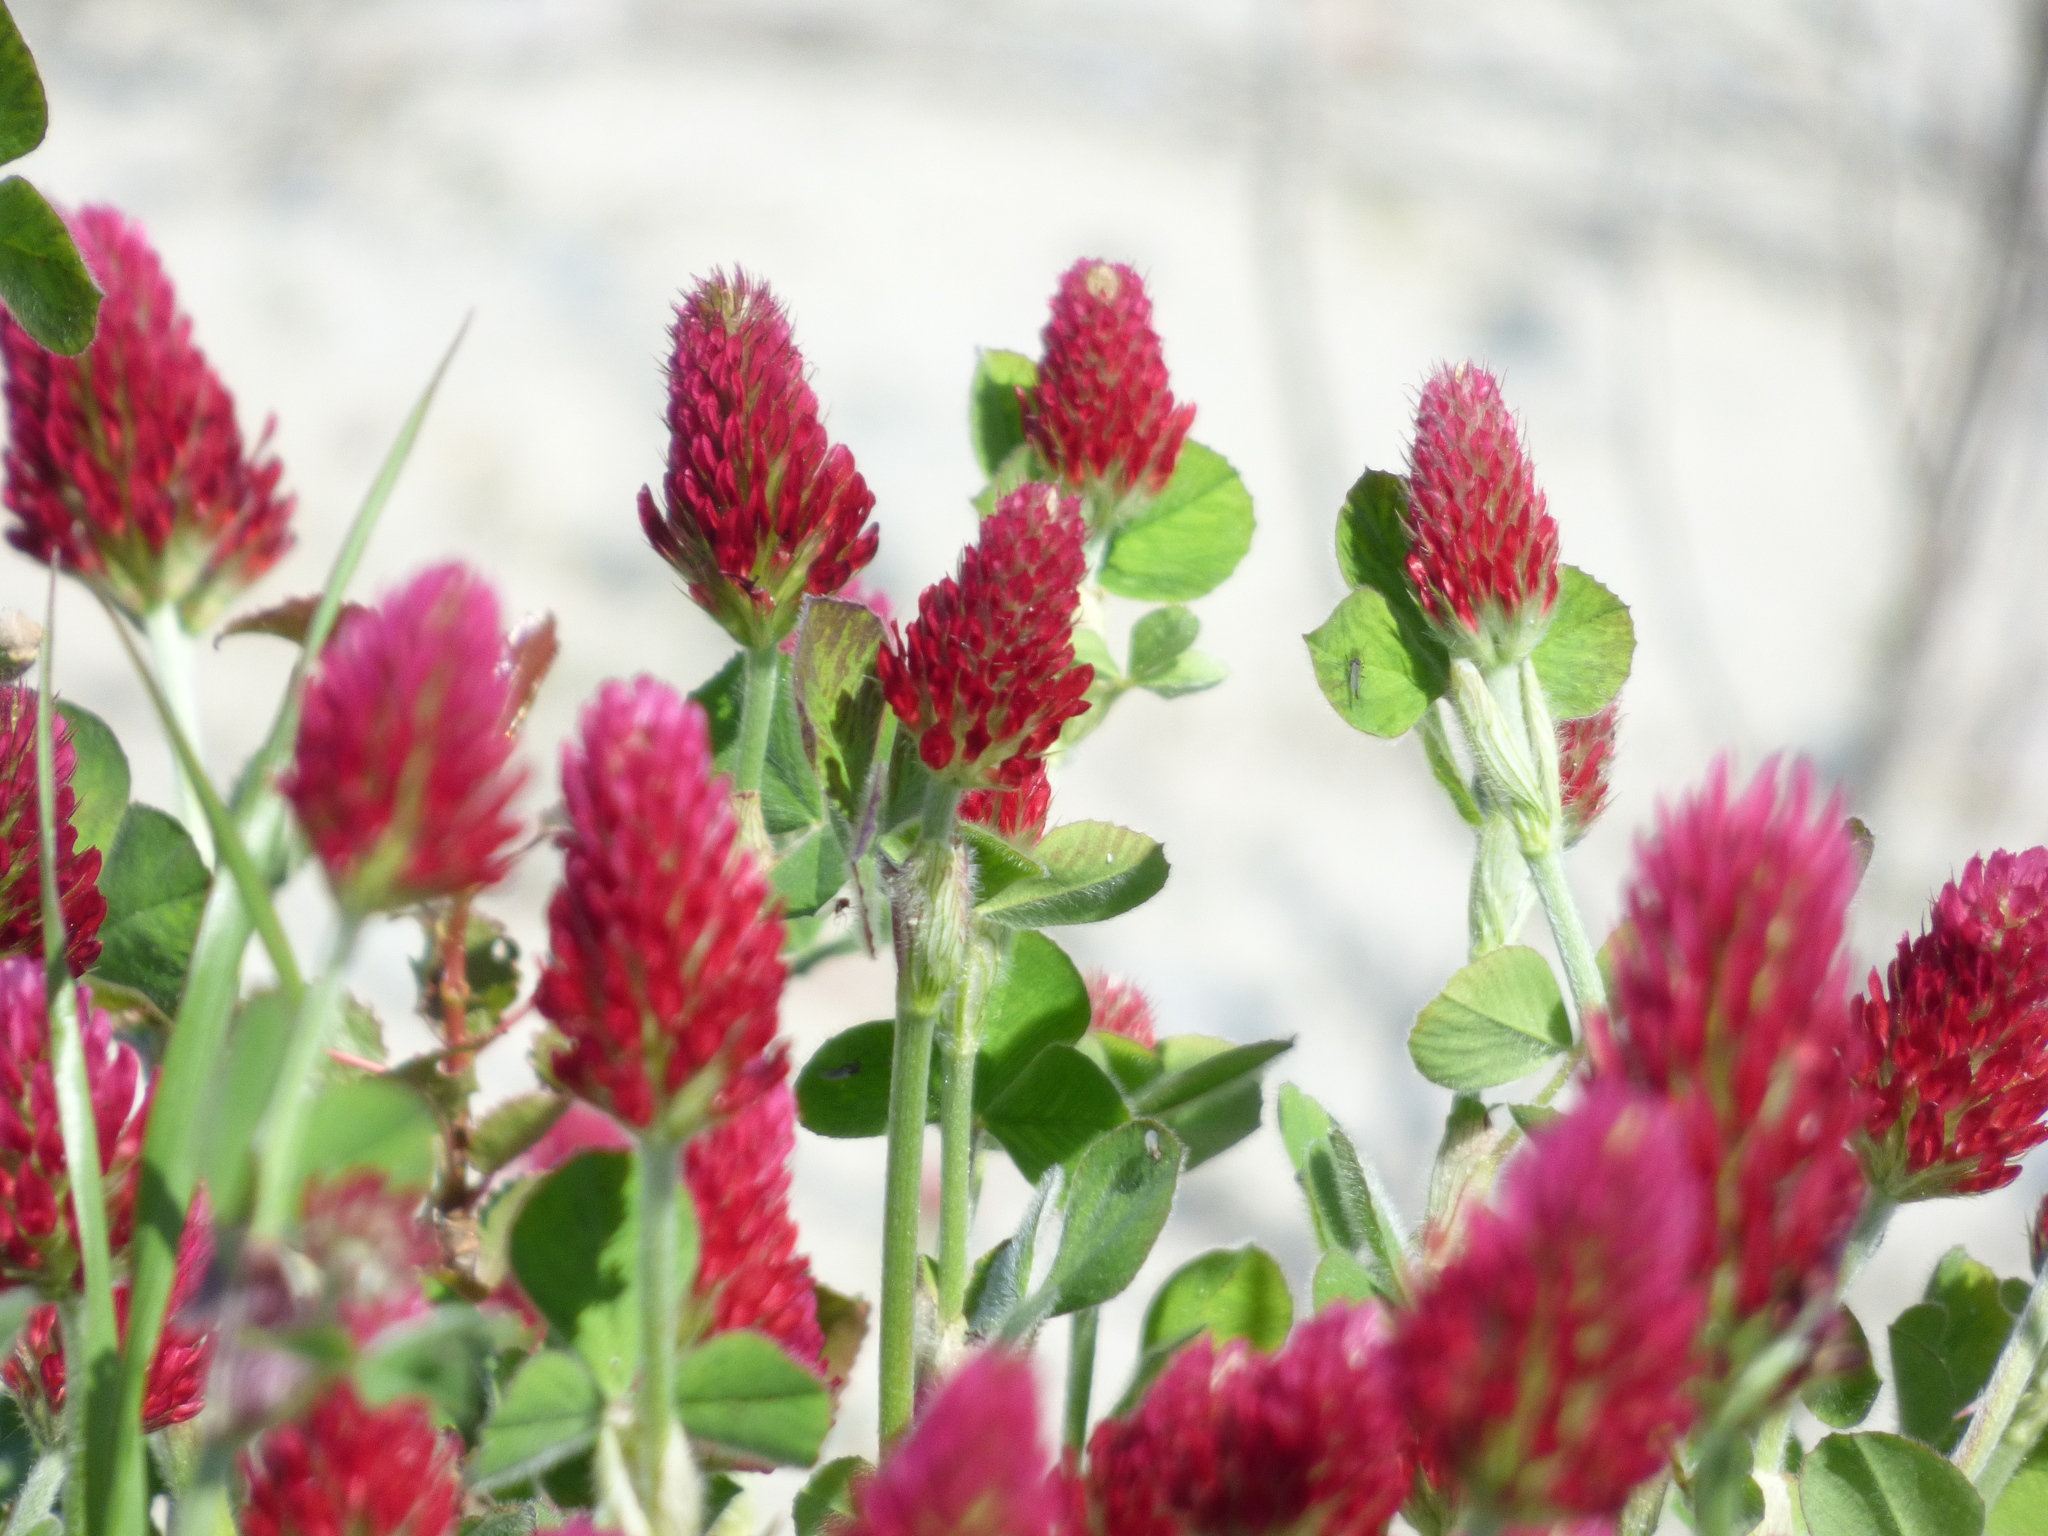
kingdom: Plantae
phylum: Tracheophyta
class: Magnoliopsida
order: Fabales
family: Fabaceae
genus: Trifolium
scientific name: Trifolium incarnatum
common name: Crimson clover
